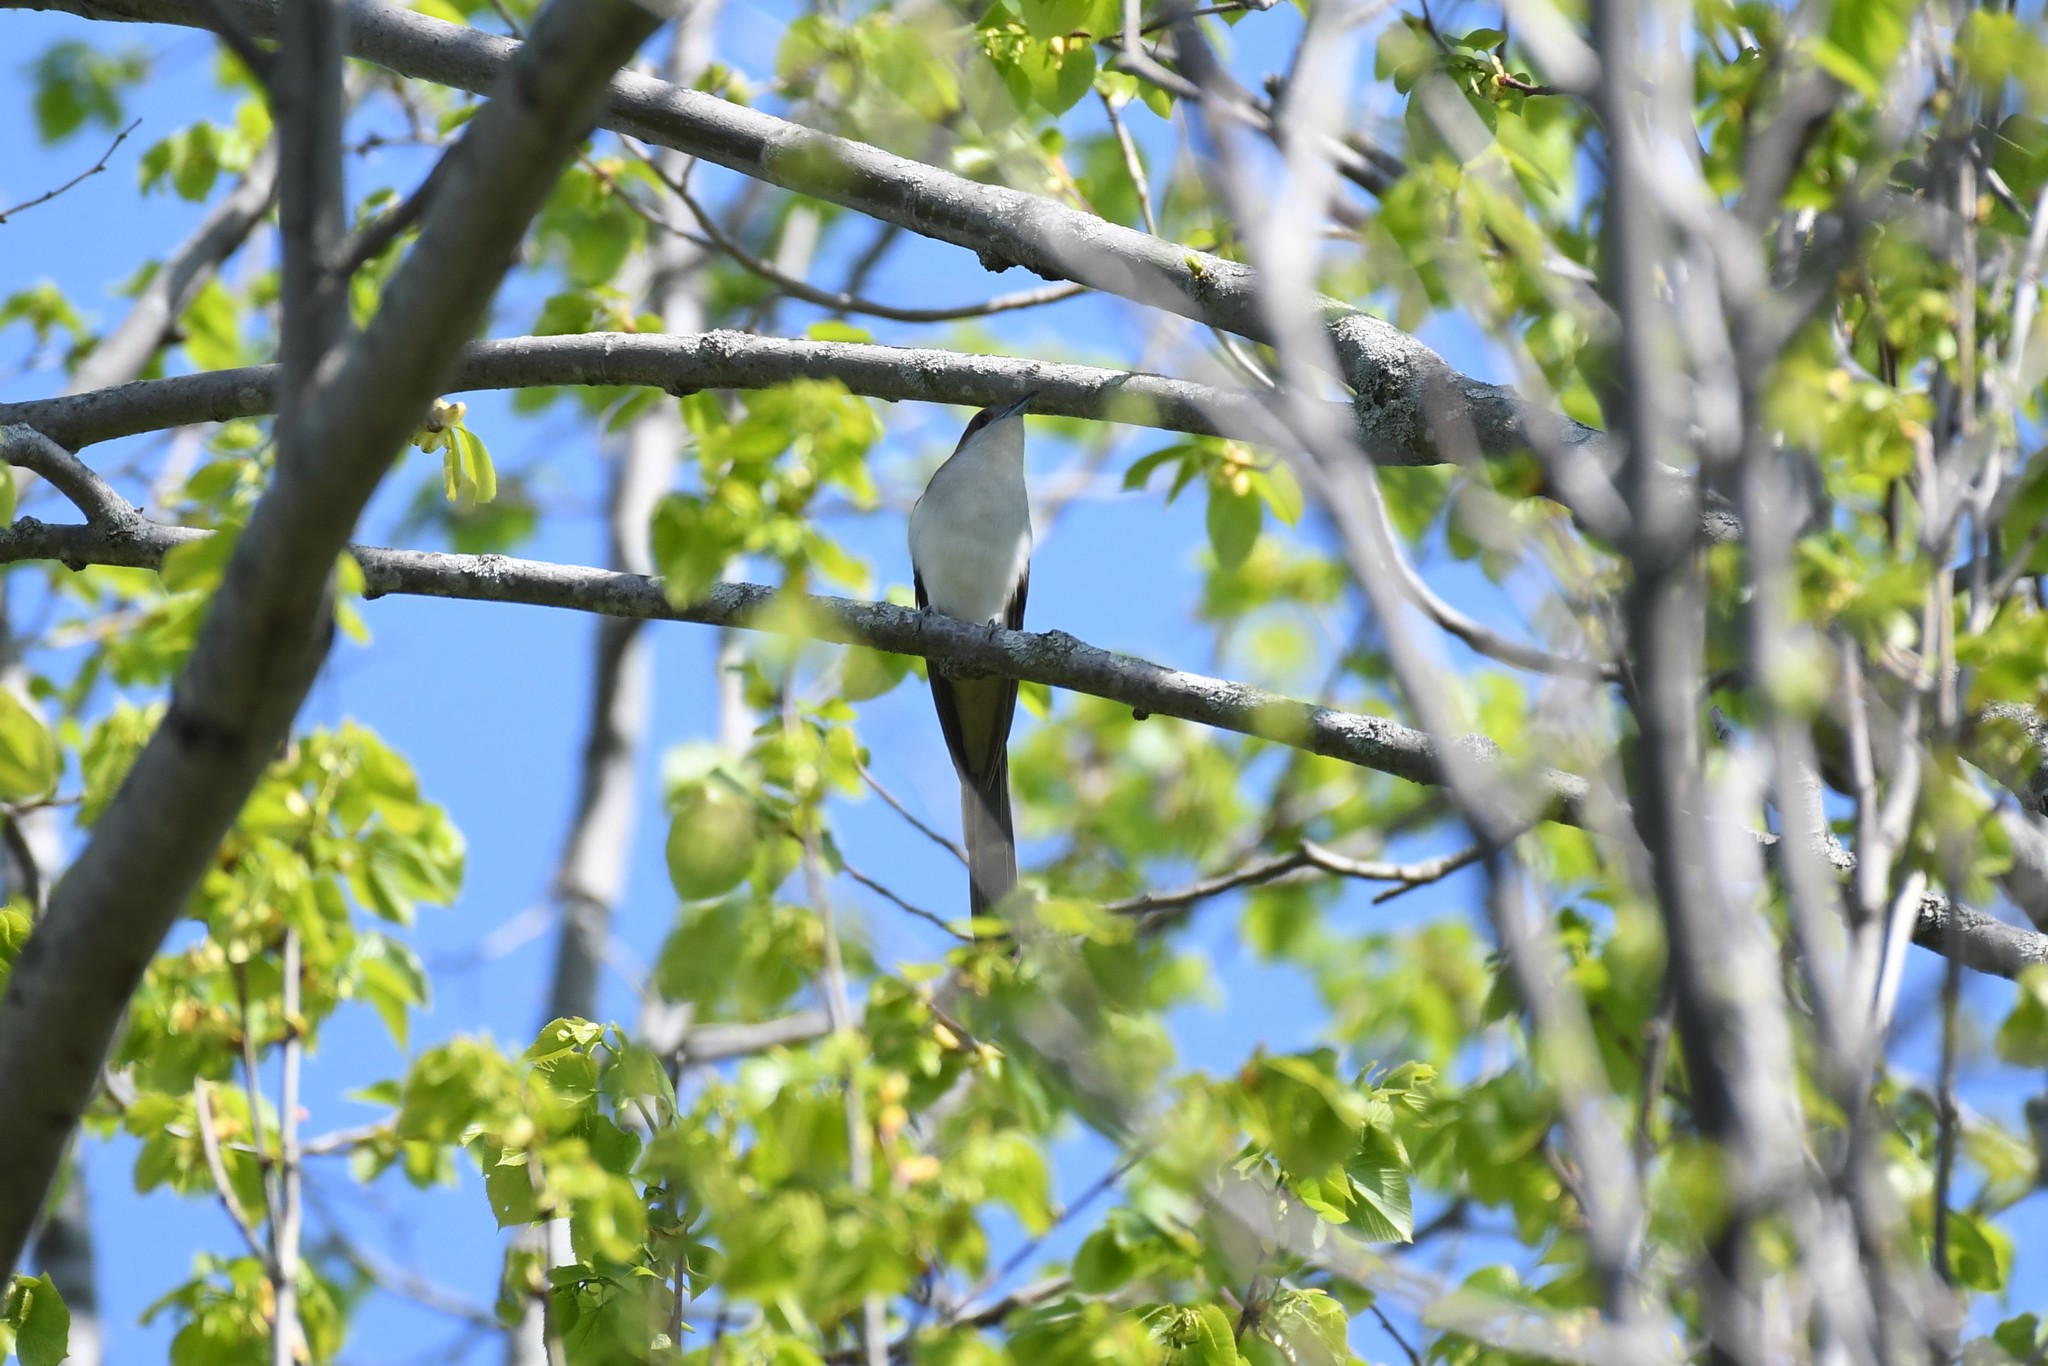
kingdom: Animalia
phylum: Chordata
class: Aves
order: Cuculiformes
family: Cuculidae
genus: Coccyzus
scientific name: Coccyzus erythropthalmus
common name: Black-billed cuckoo
